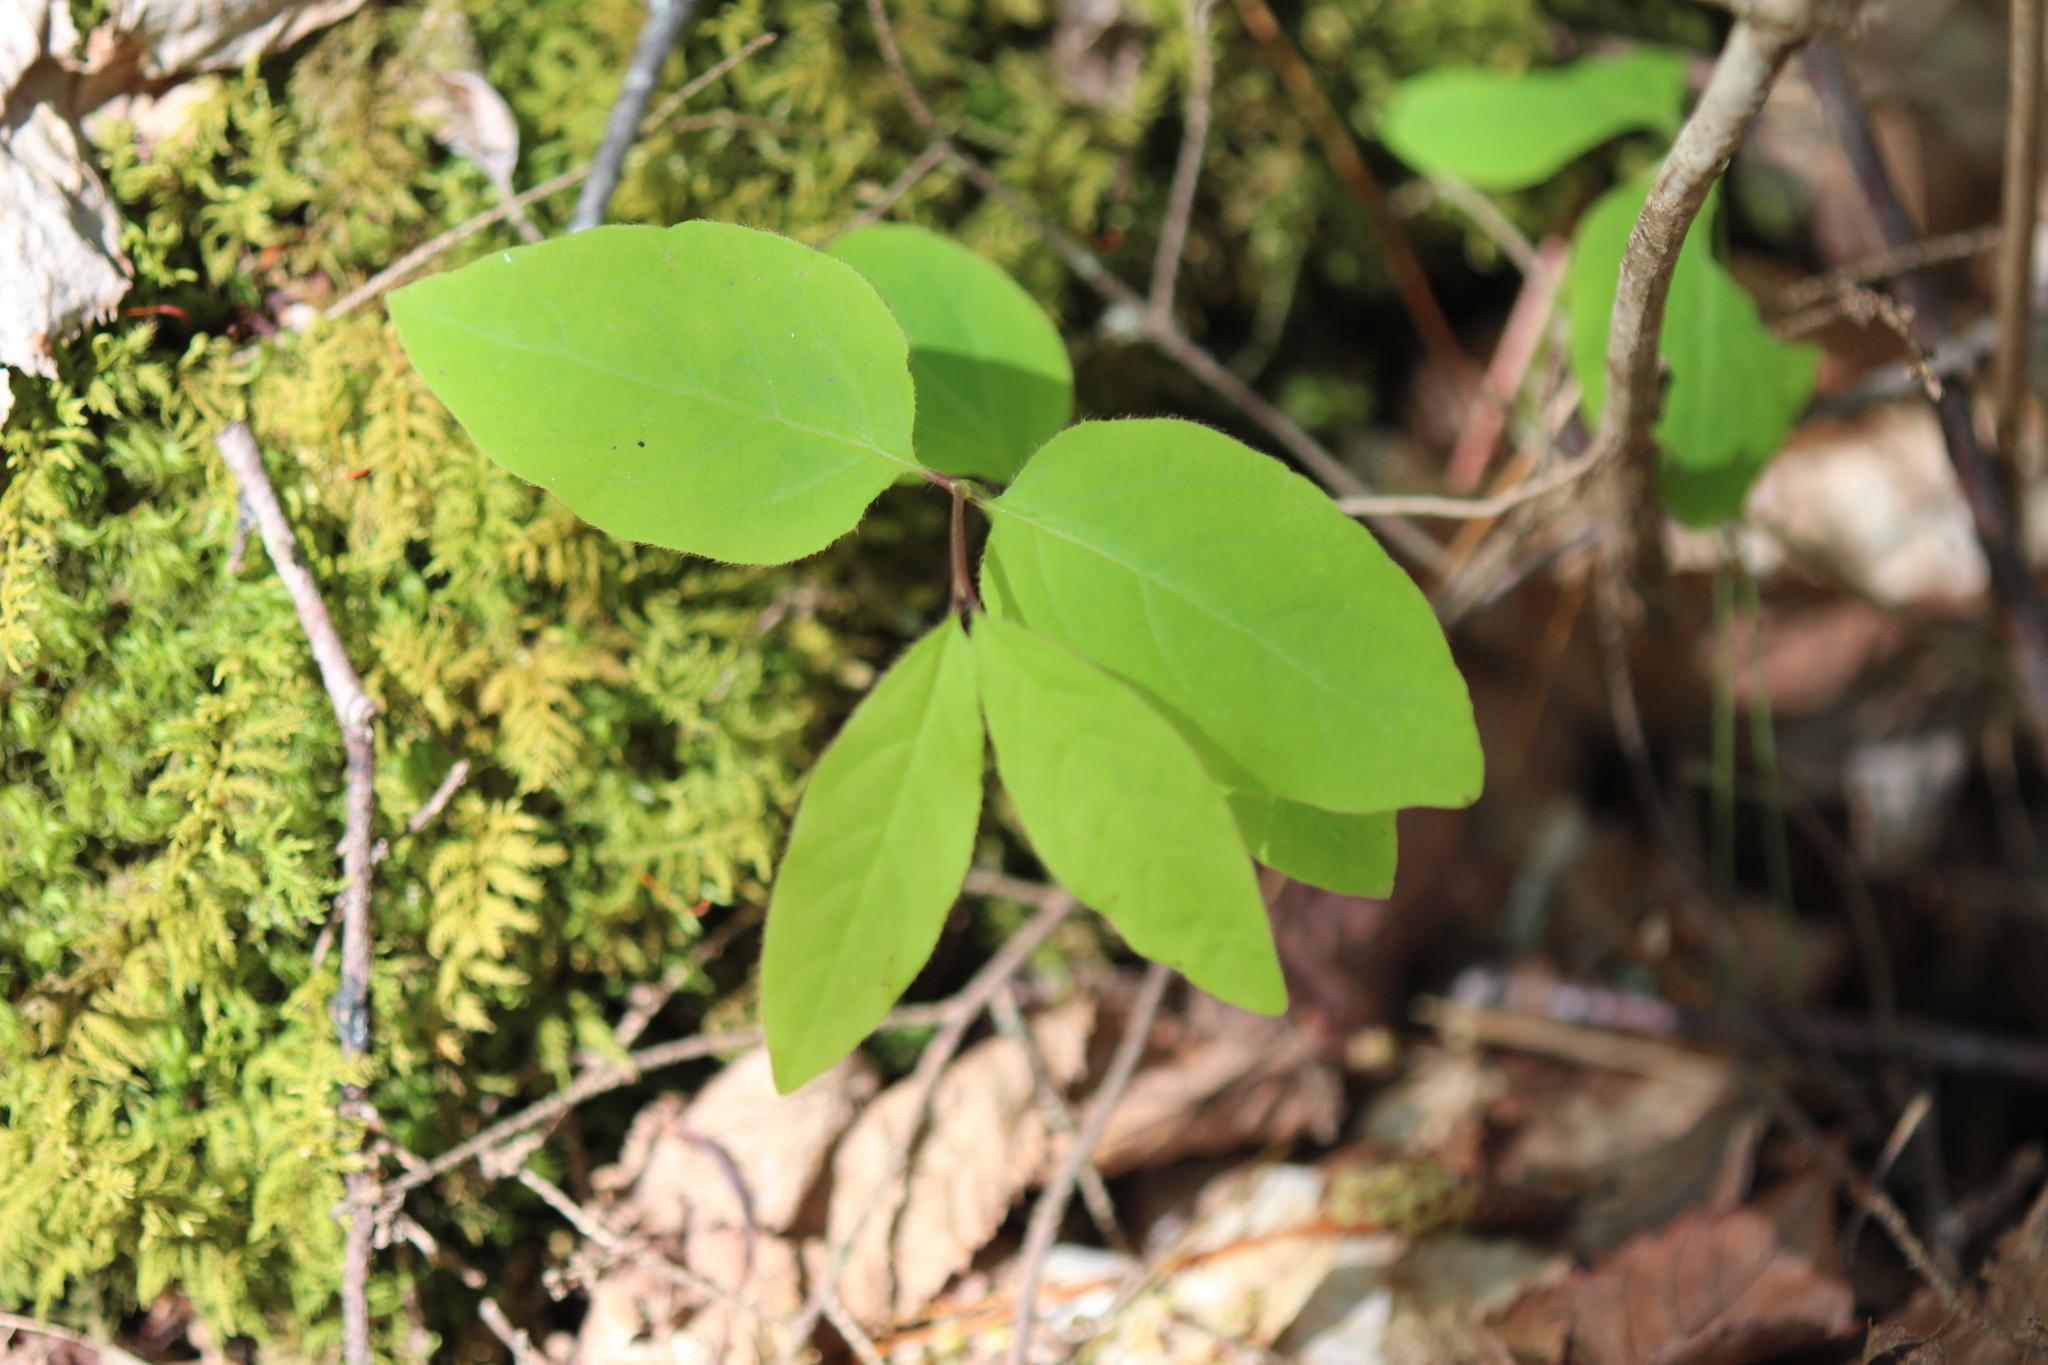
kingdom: Plantae
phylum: Tracheophyta
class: Magnoliopsida
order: Dipsacales
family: Caprifoliaceae
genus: Lonicera
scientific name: Lonicera canadensis
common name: American fly-honeysuckle
